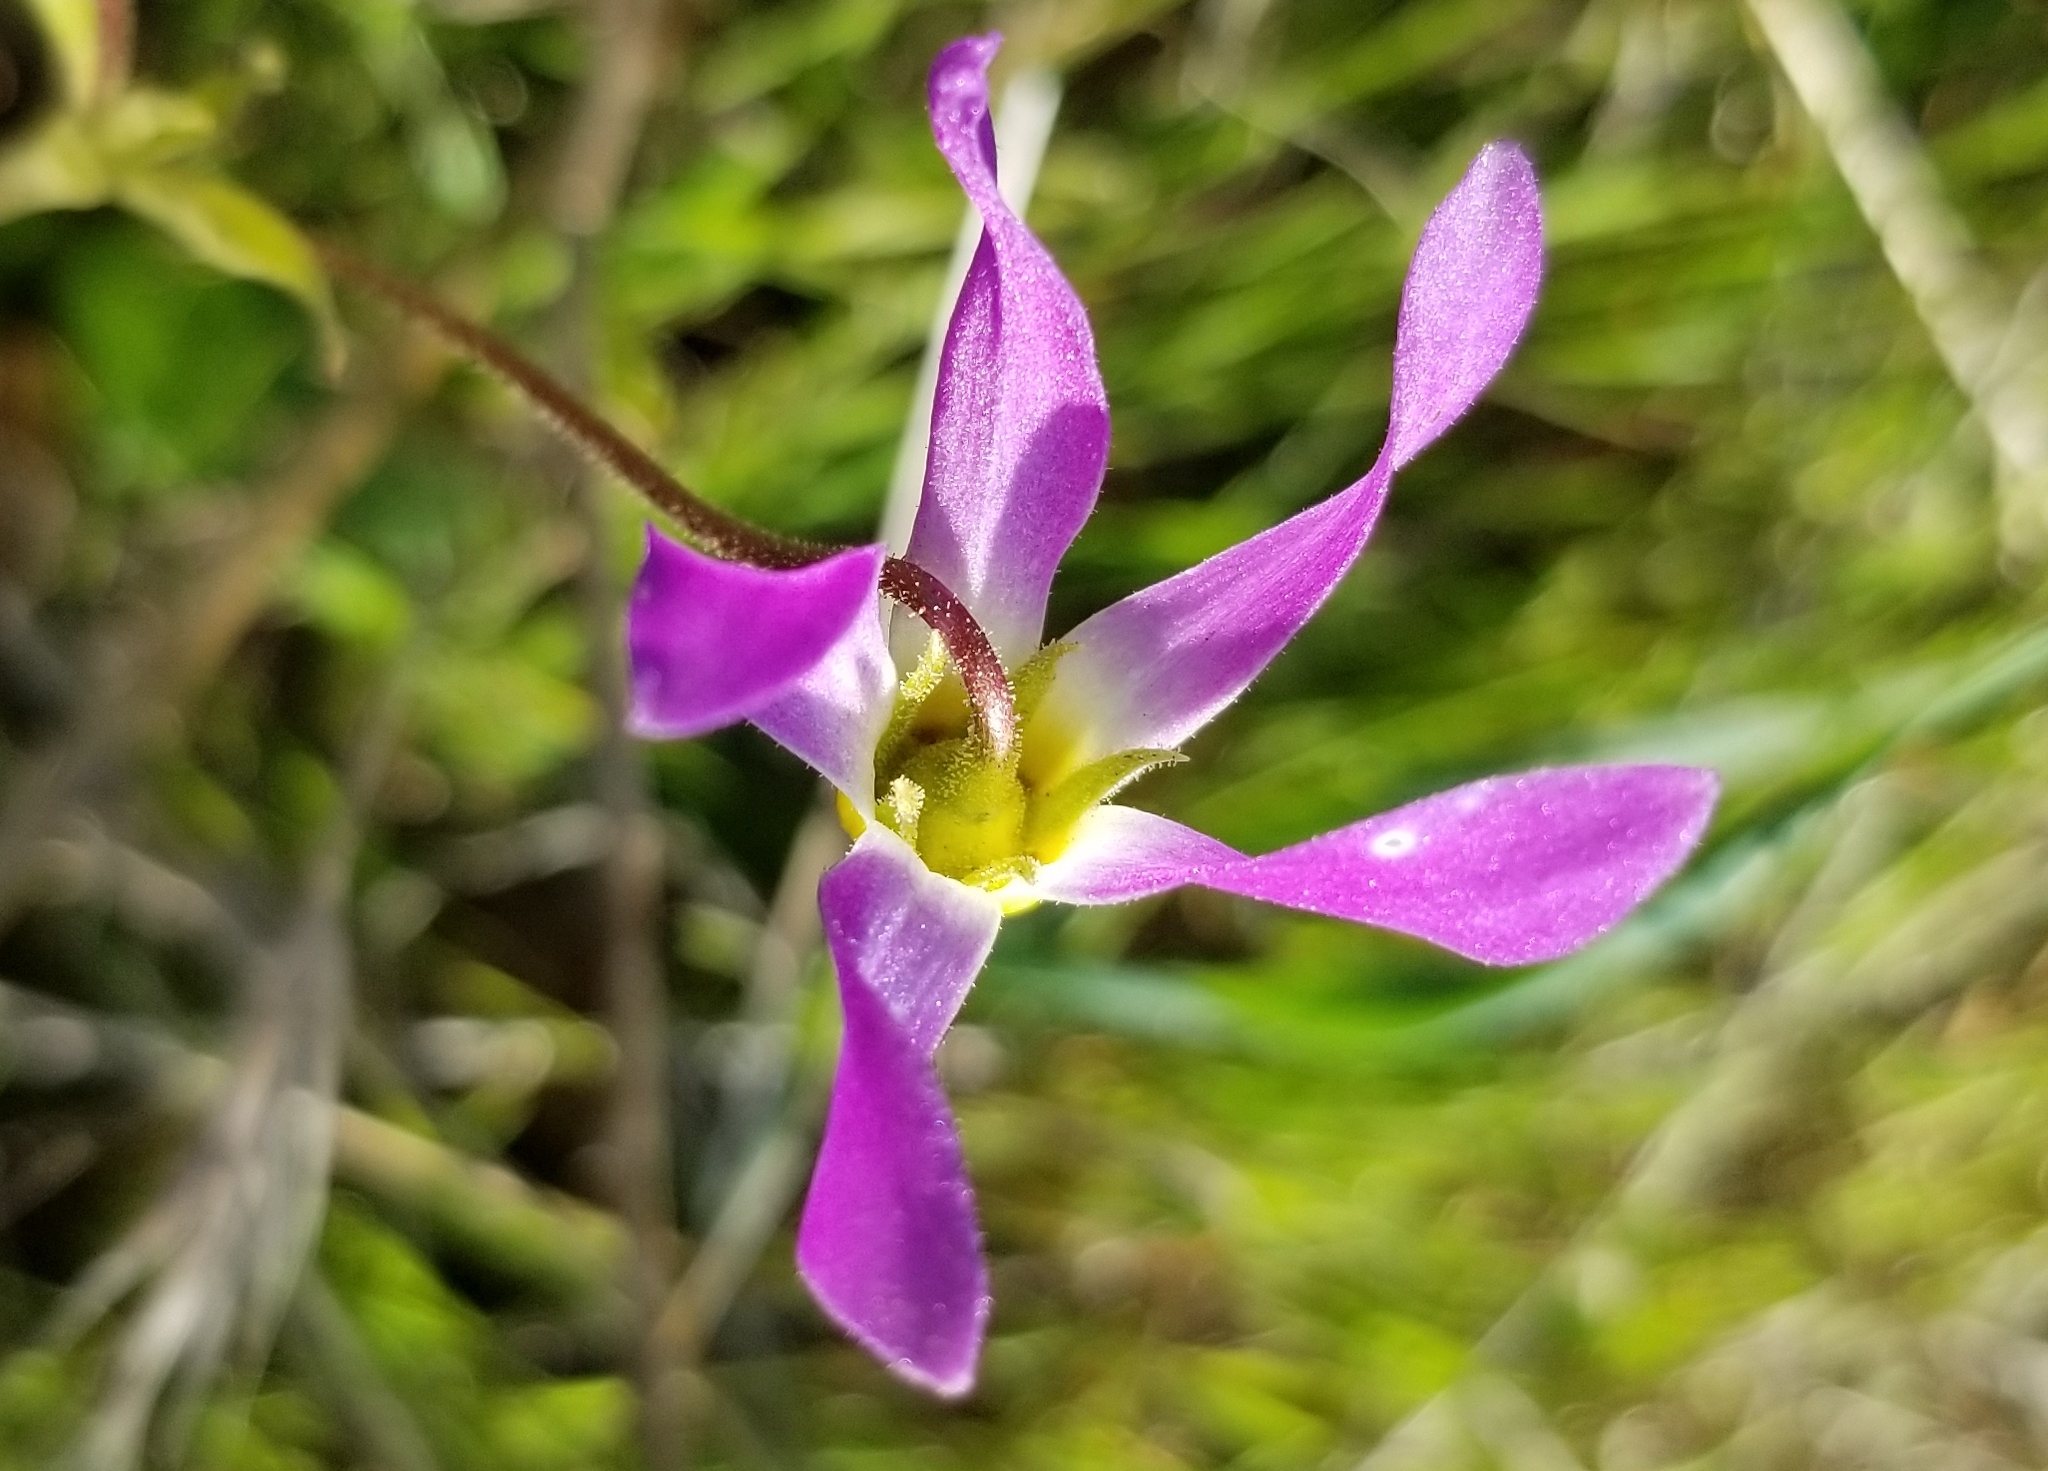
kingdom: Plantae
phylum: Tracheophyta
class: Magnoliopsida
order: Ericales
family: Primulaceae
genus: Dodecatheon
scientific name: Dodecatheon clevelandii
